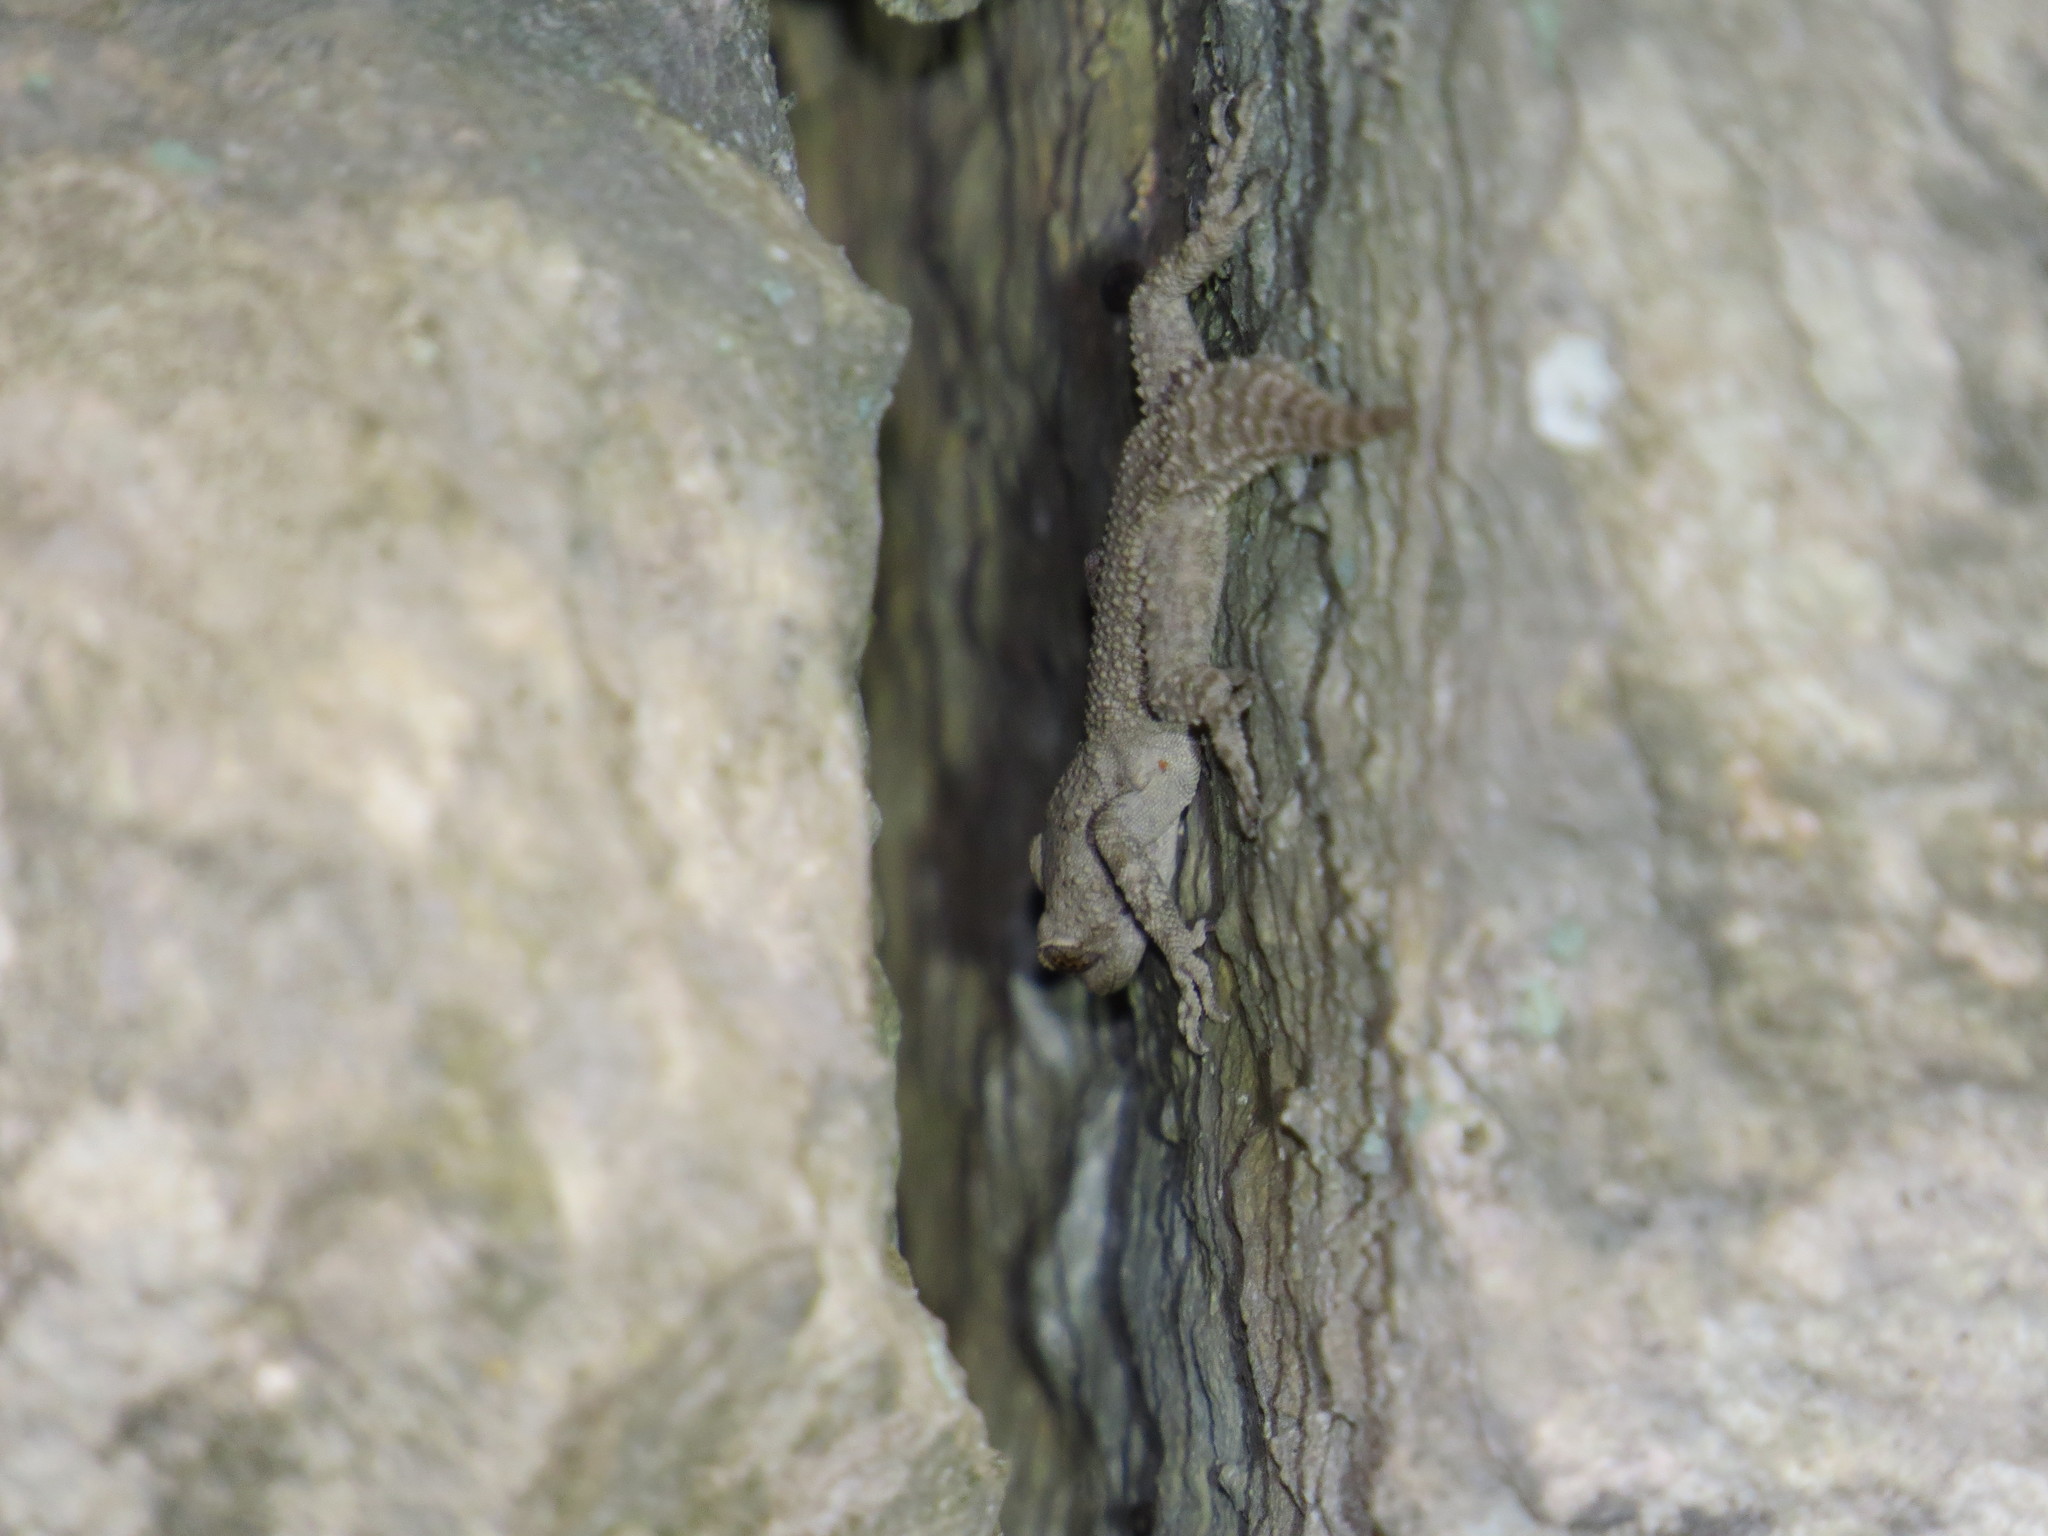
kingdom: Animalia
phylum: Chordata
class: Squamata
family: Gekkonidae
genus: Mediodactylus
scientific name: Mediodactylus danilewskii
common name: Bulgarian bent-toed gecko
